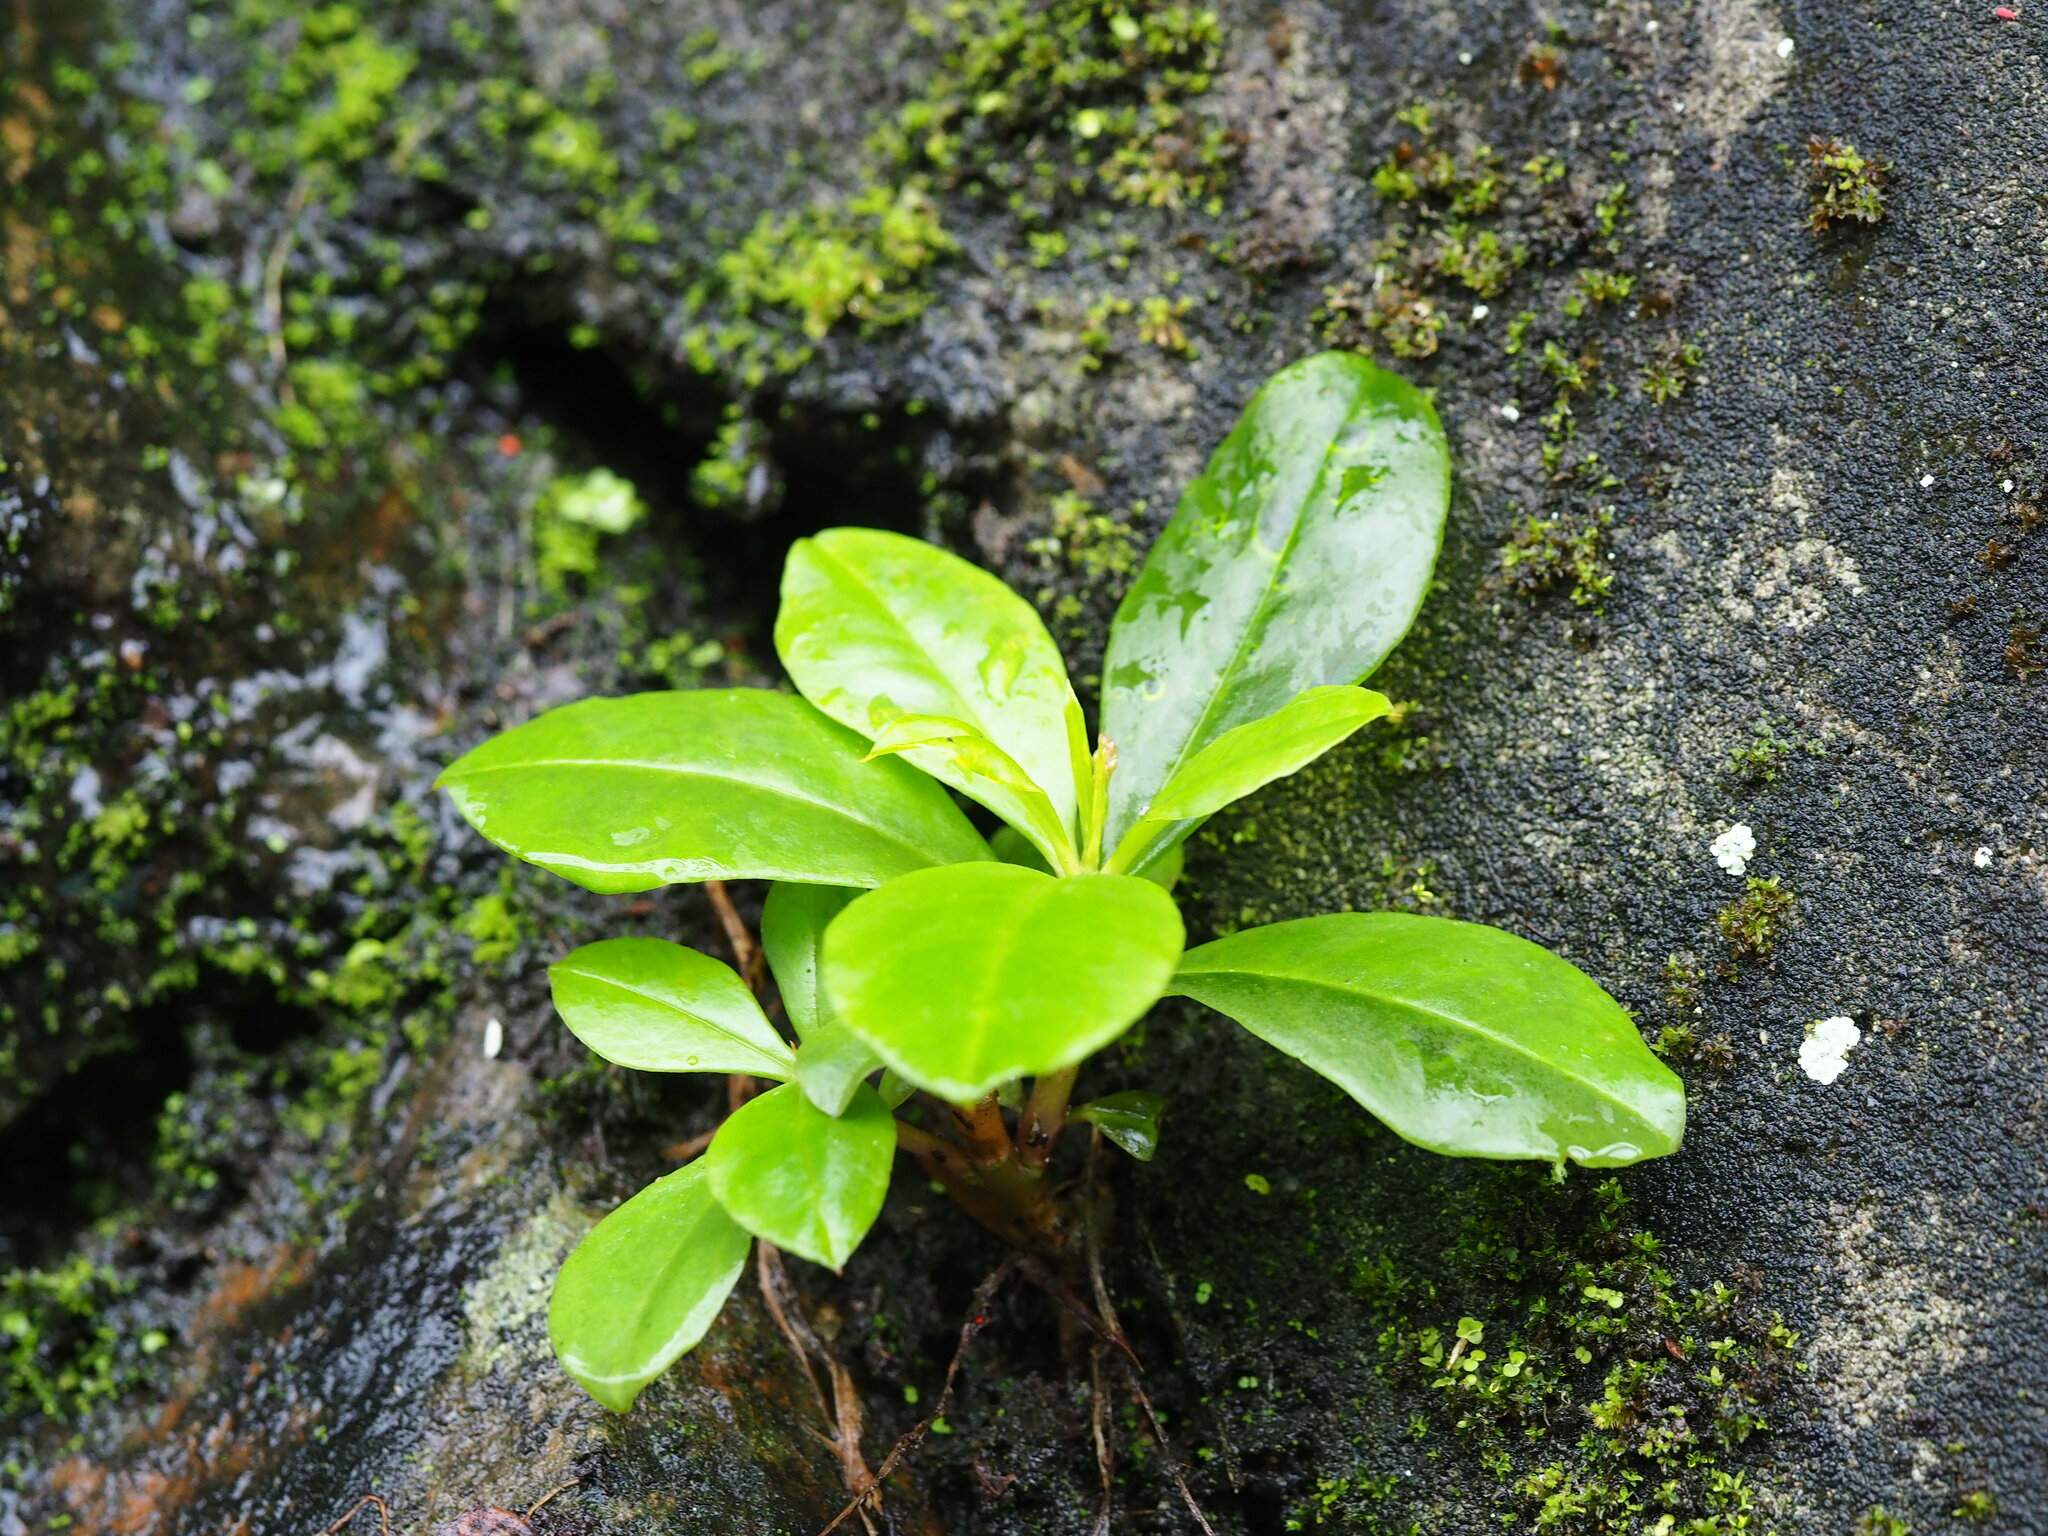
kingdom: Plantae
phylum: Tracheophyta
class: Magnoliopsida
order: Caryophyllales
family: Talinaceae
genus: Talinum
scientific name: Talinum paniculatum
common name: Jewels of opar
